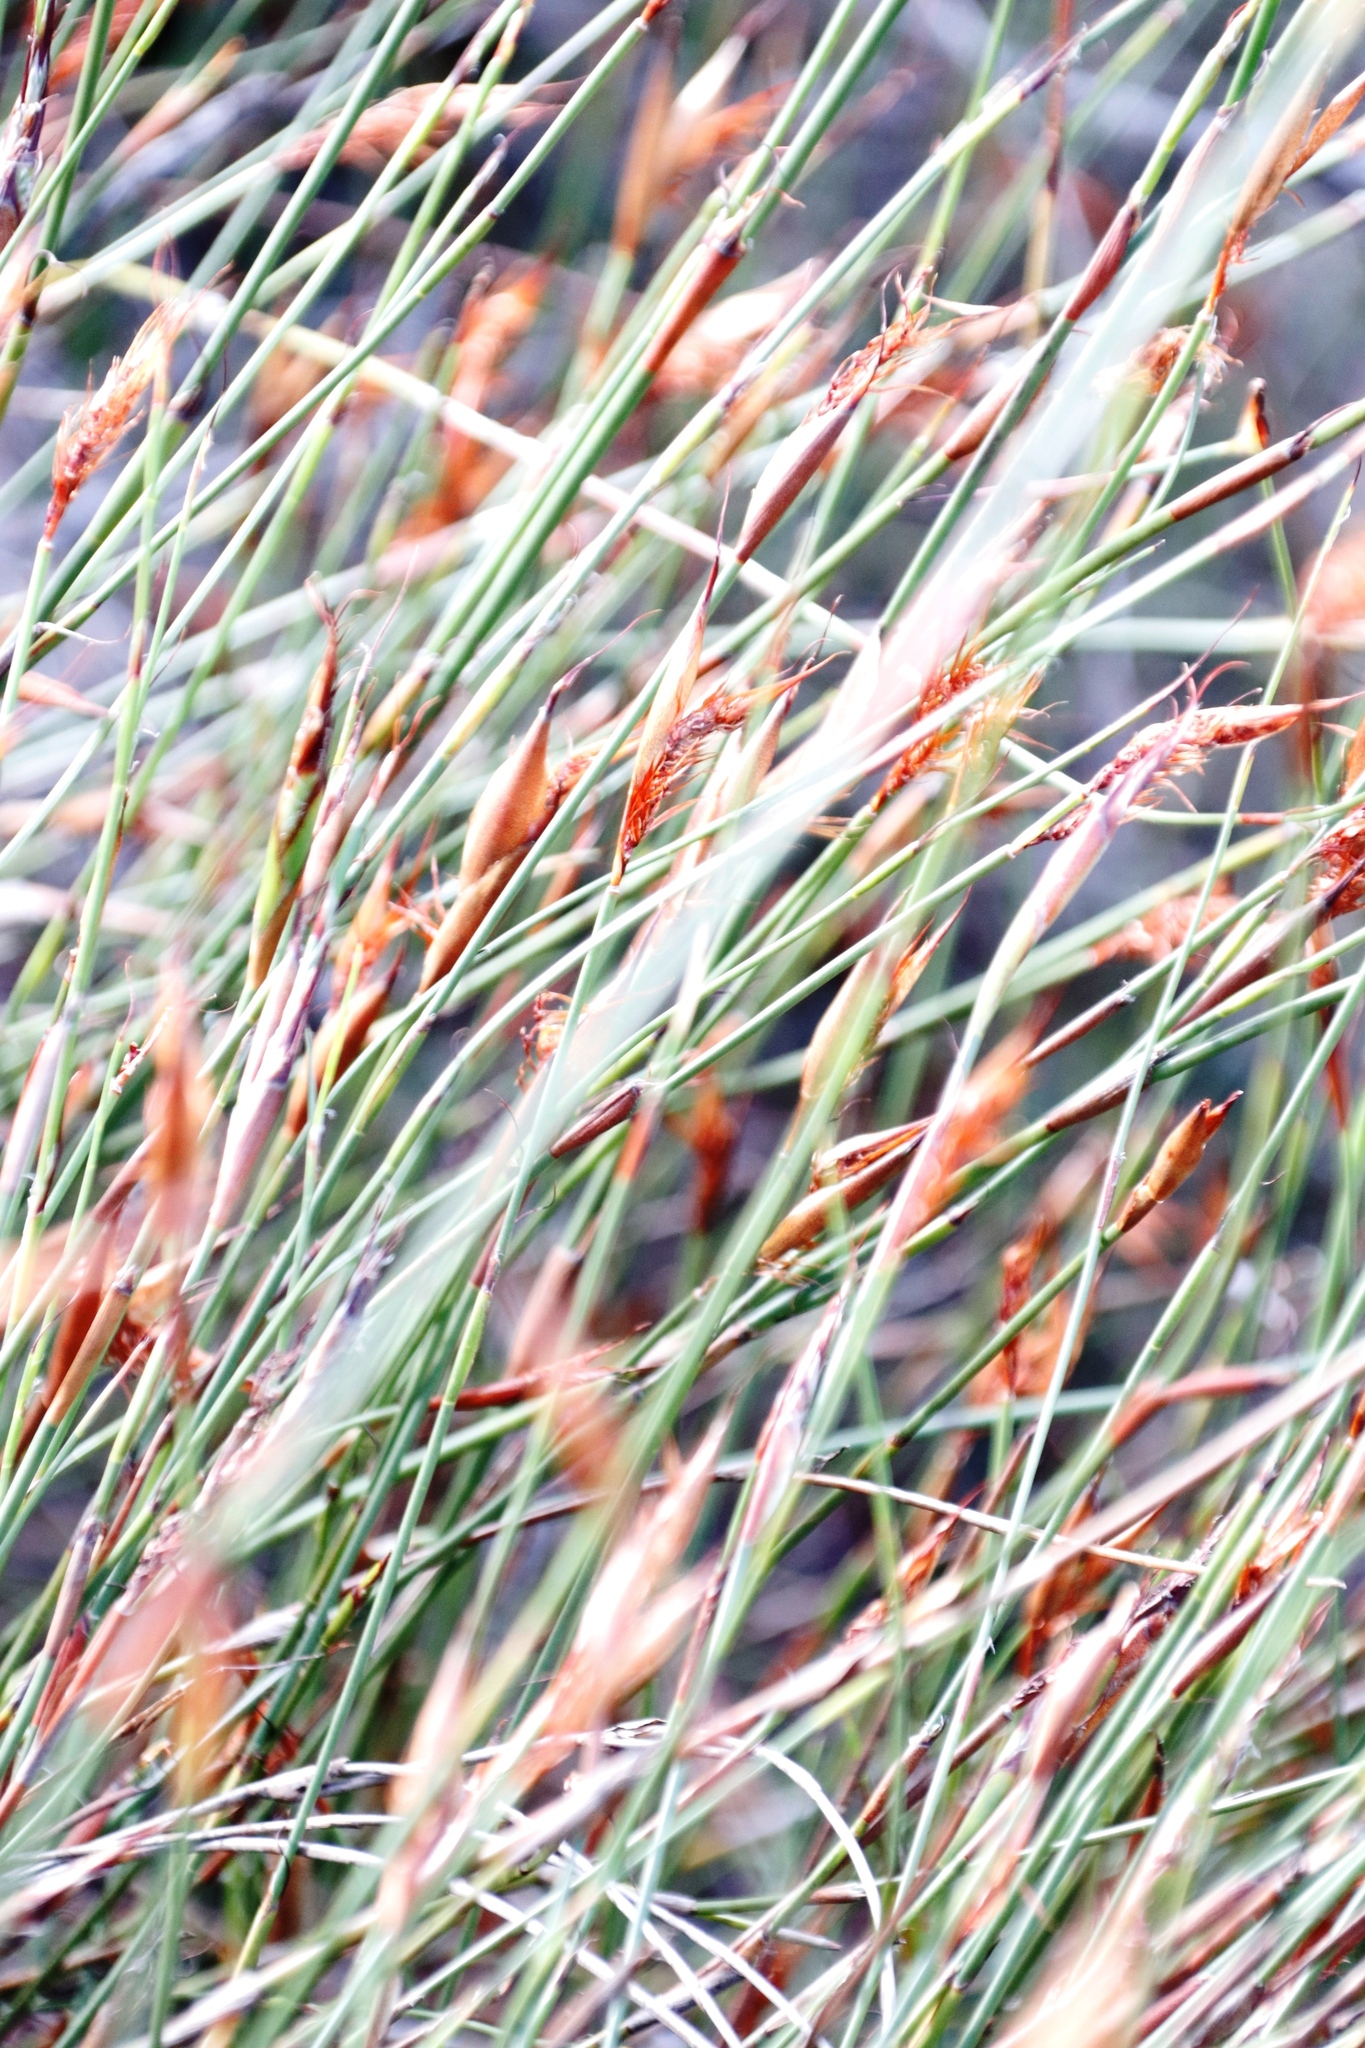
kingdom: Plantae
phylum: Tracheophyta
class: Liliopsida
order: Poales
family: Restionaceae
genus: Willdenowia
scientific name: Willdenowia glomerata
